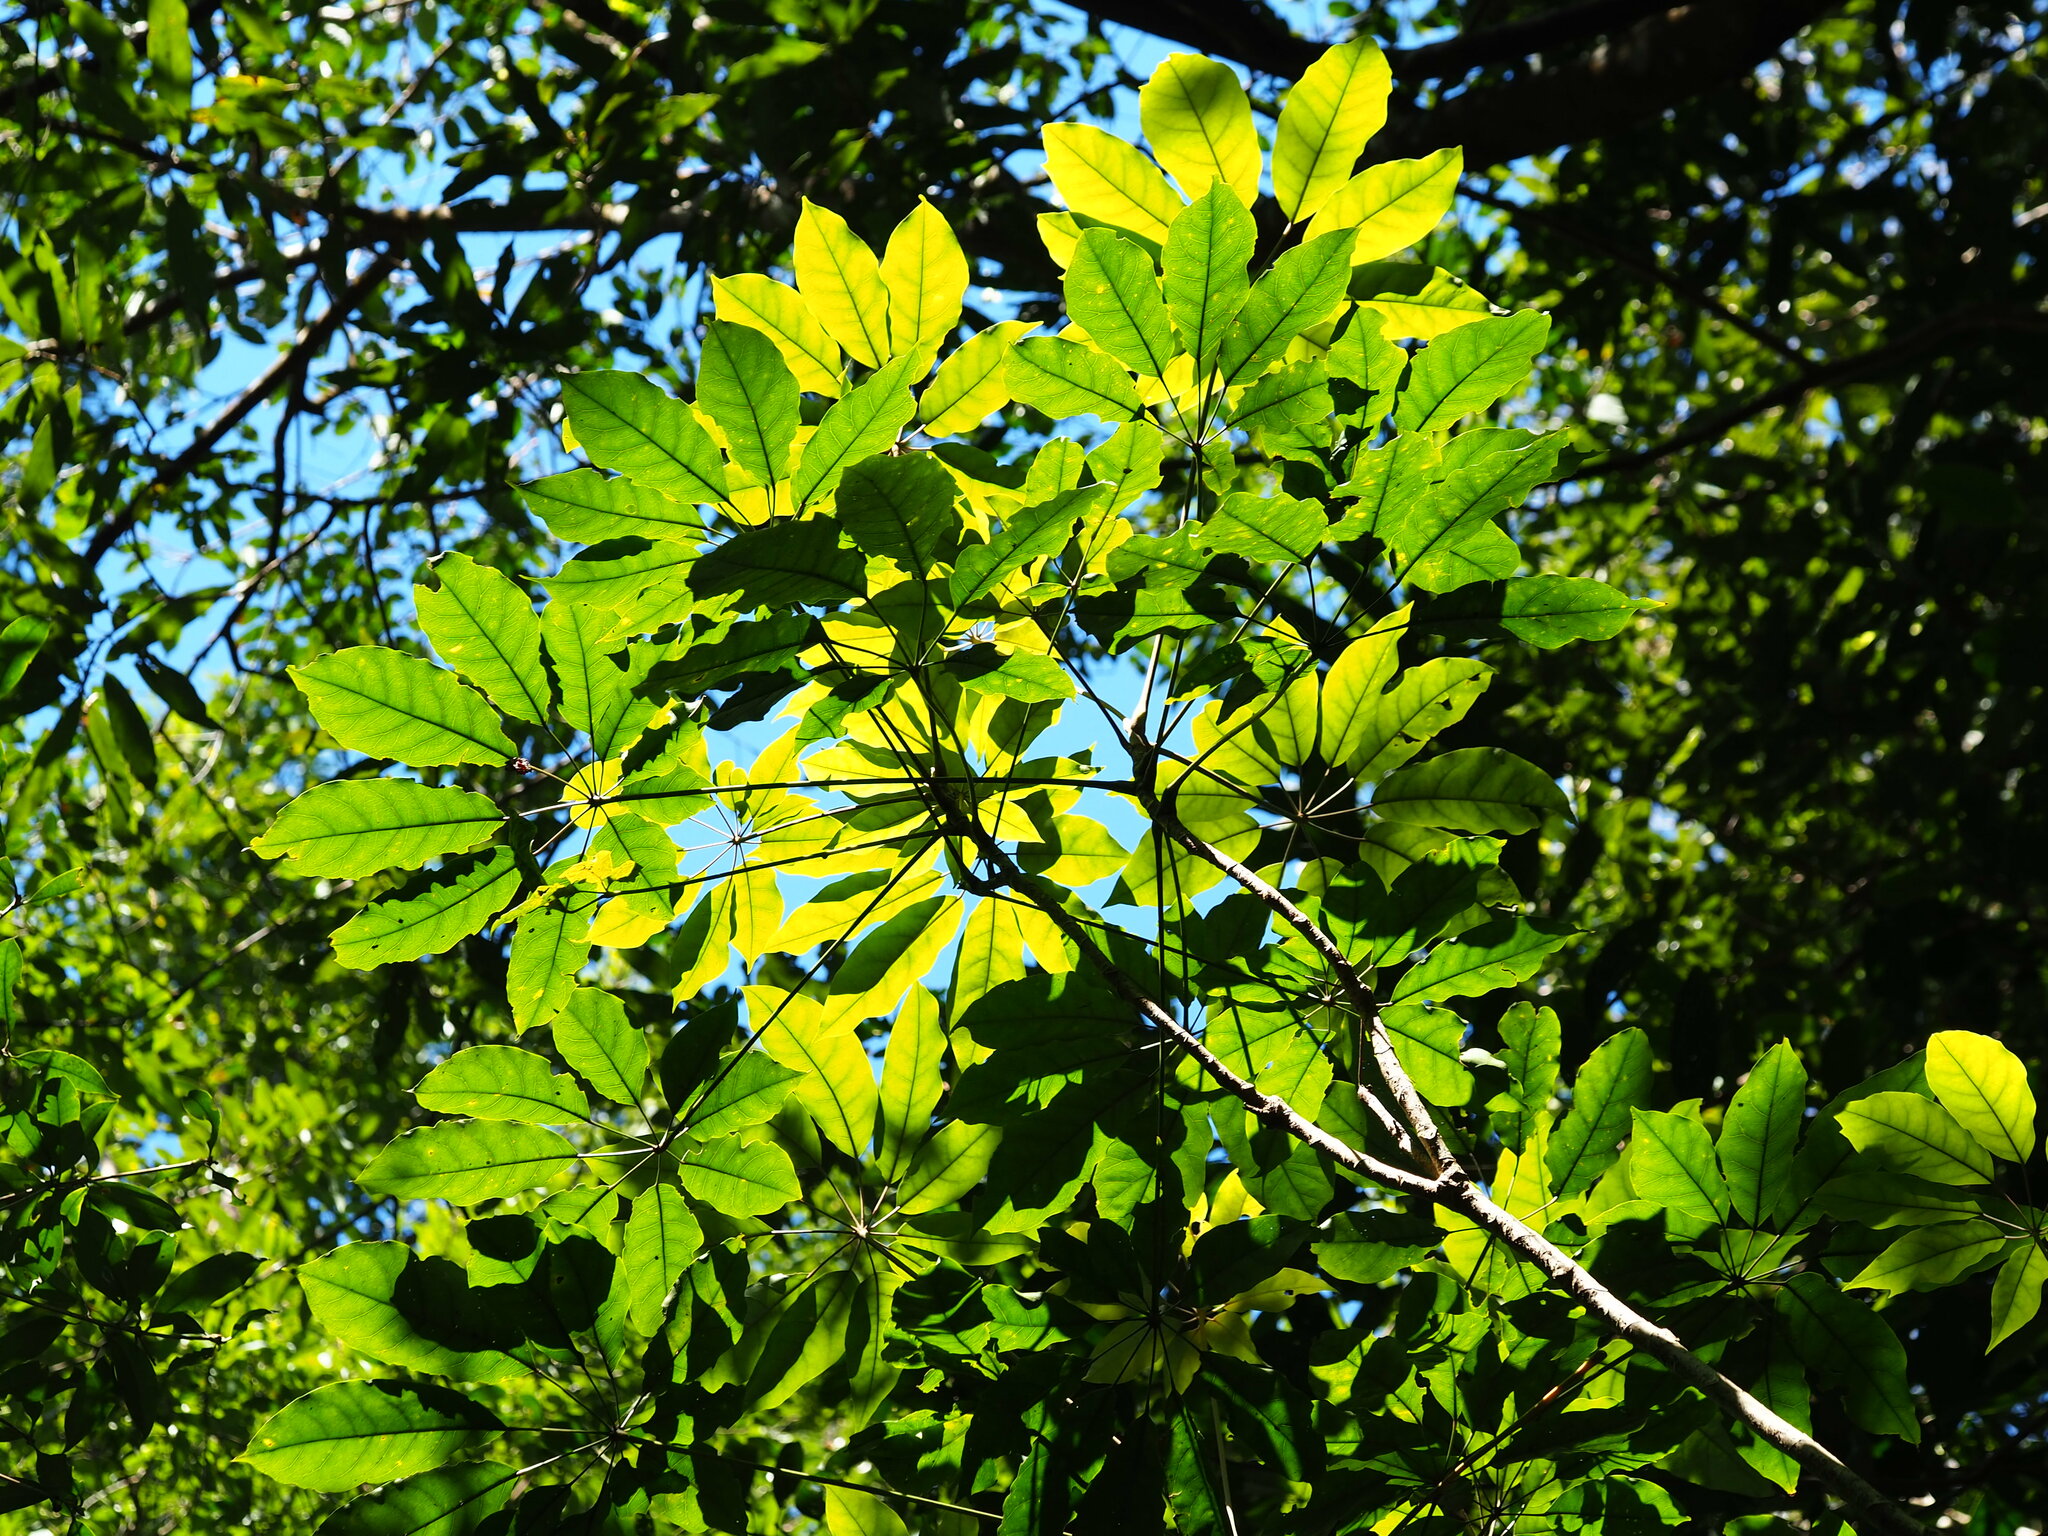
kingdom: Plantae
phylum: Tracheophyta
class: Magnoliopsida
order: Apiales
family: Araliaceae
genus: Heptapleurum
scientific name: Heptapleurum heptaphyllum
